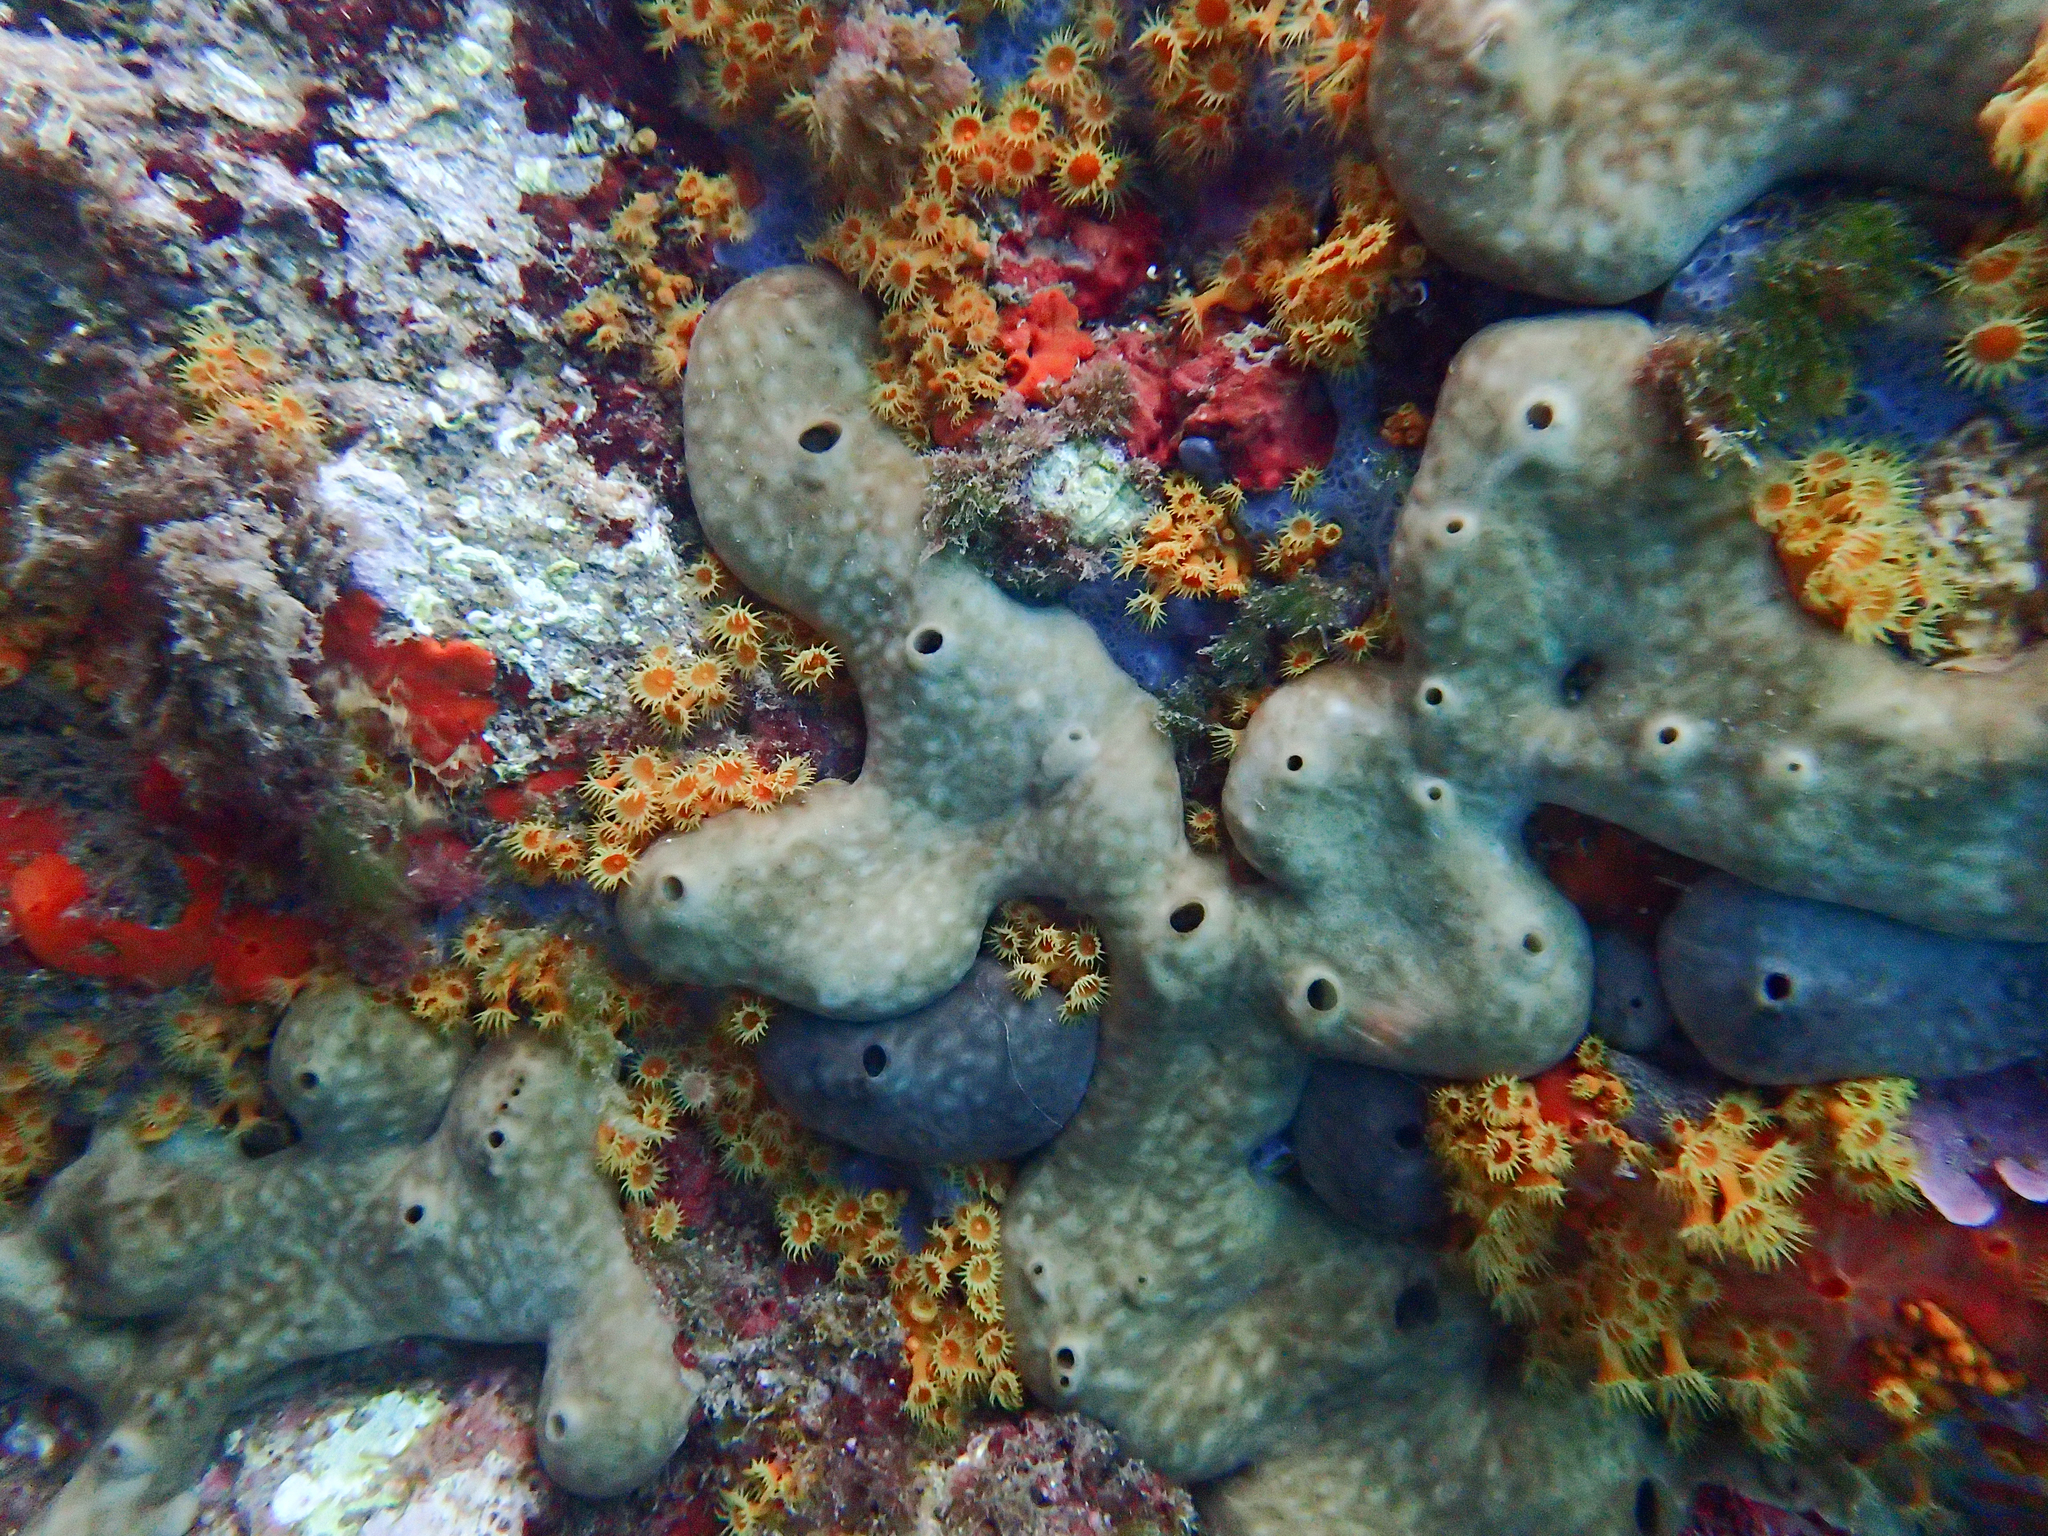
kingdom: Animalia
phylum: Porifera
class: Demospongiae
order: Chondrosiida
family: Chondrosiidae
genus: Chondrosia
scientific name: Chondrosia reniformis
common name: Chicken liver sponge
